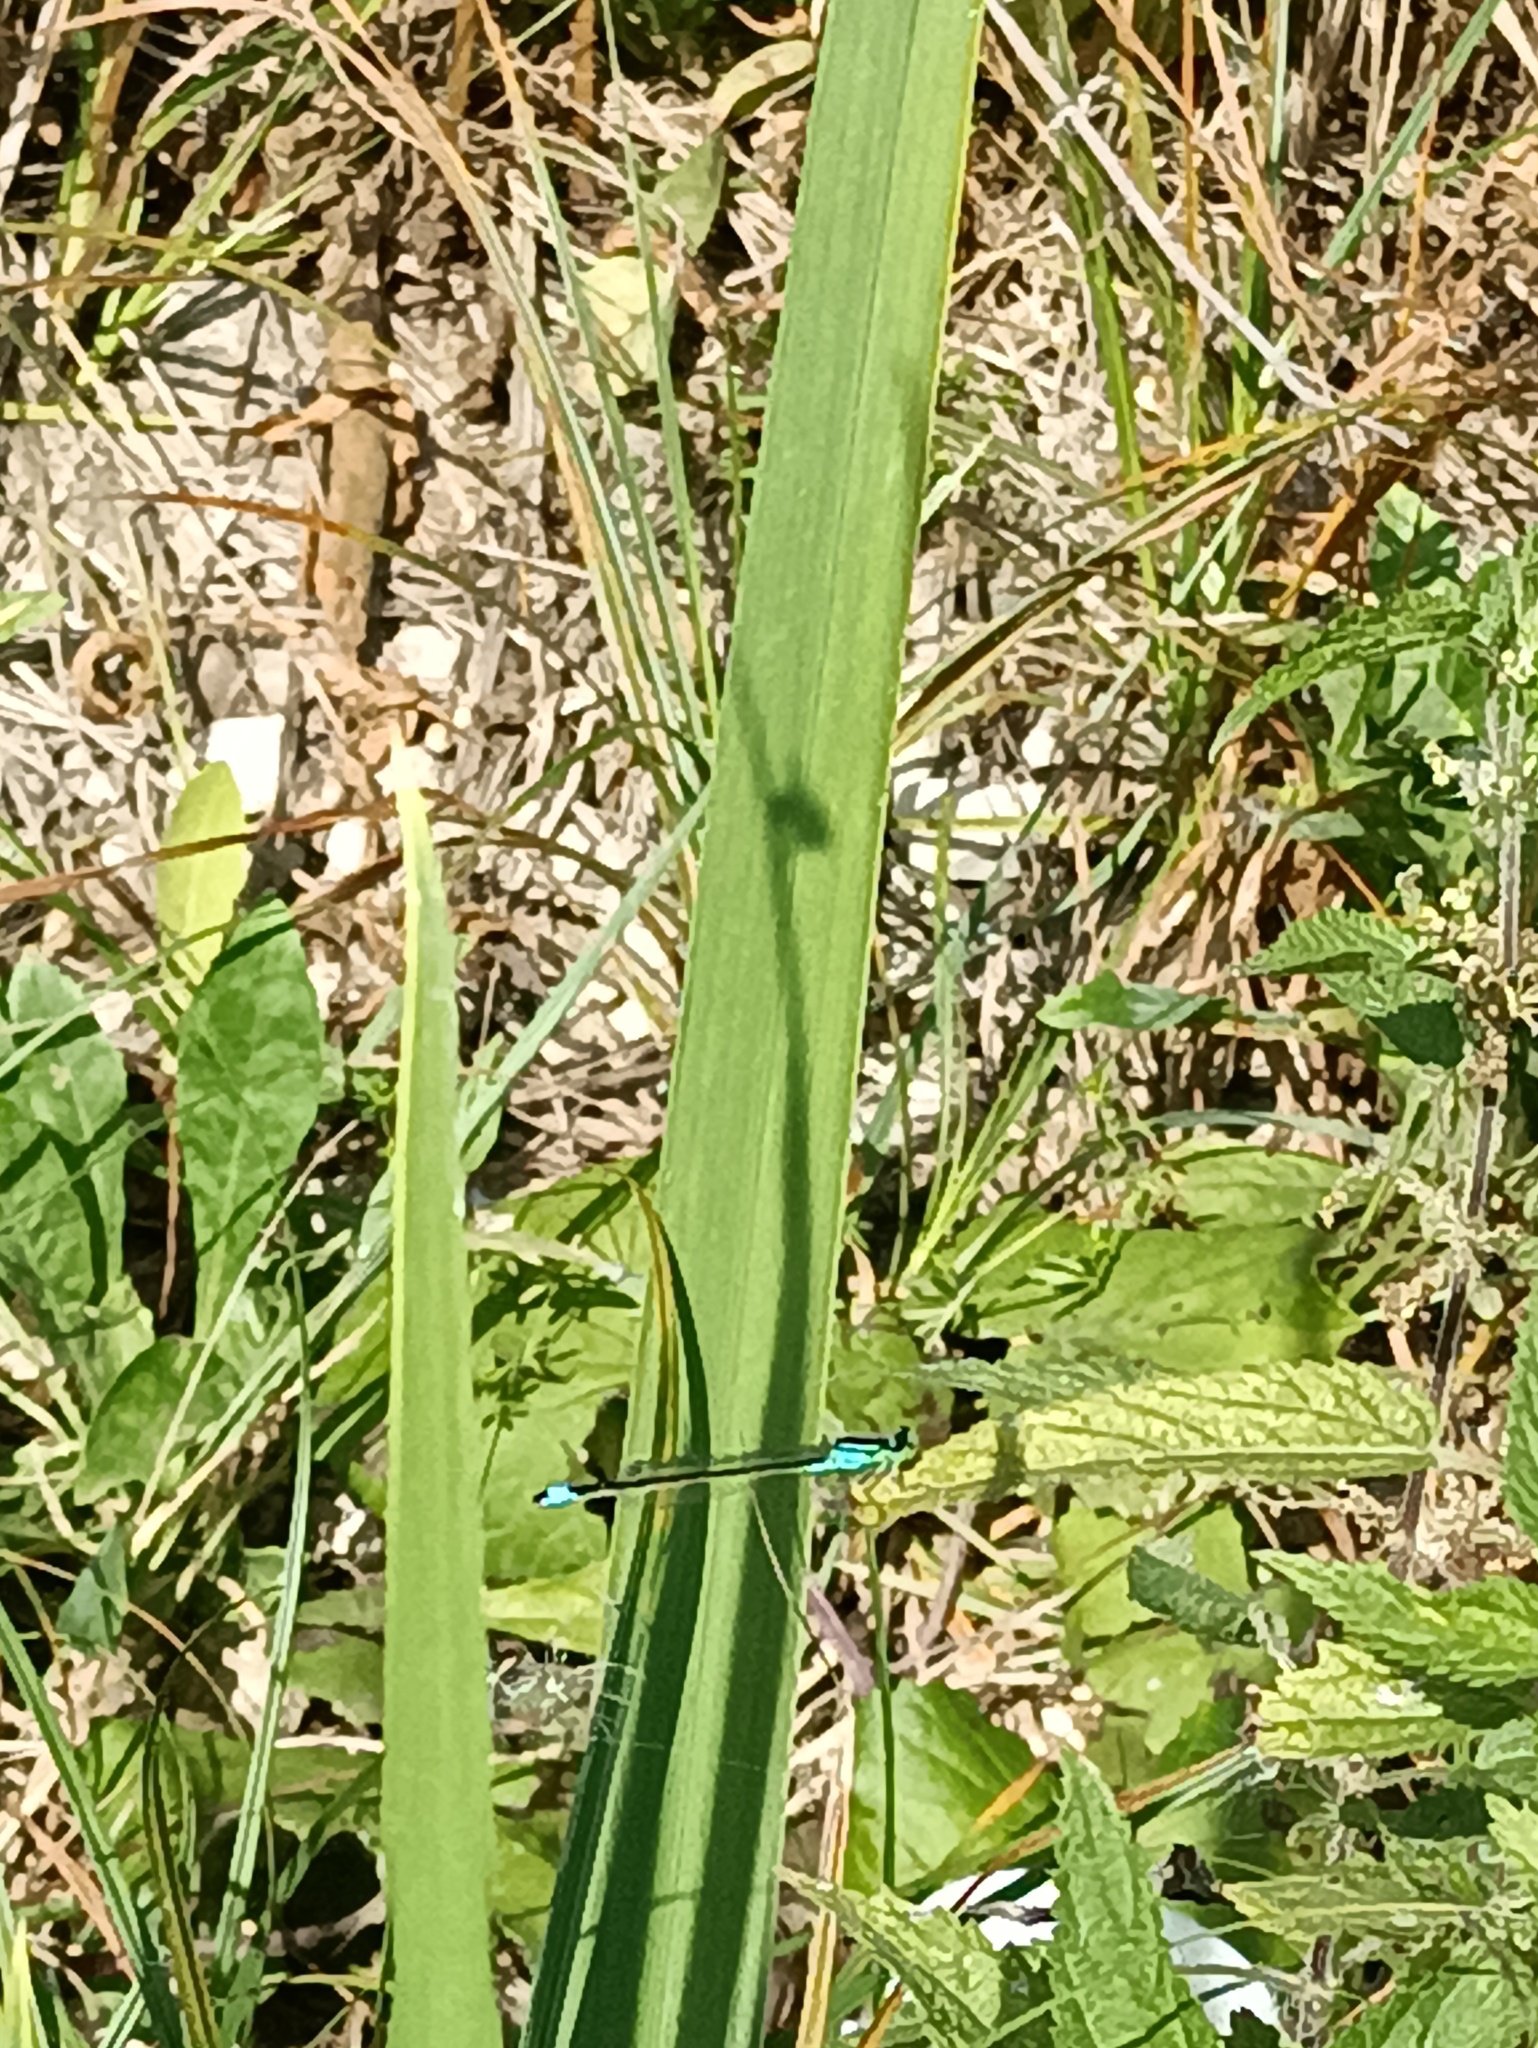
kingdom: Animalia
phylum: Arthropoda
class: Insecta
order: Odonata
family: Coenagrionidae
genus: Ischnura
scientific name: Ischnura elegans
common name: Blue-tailed damselfly
